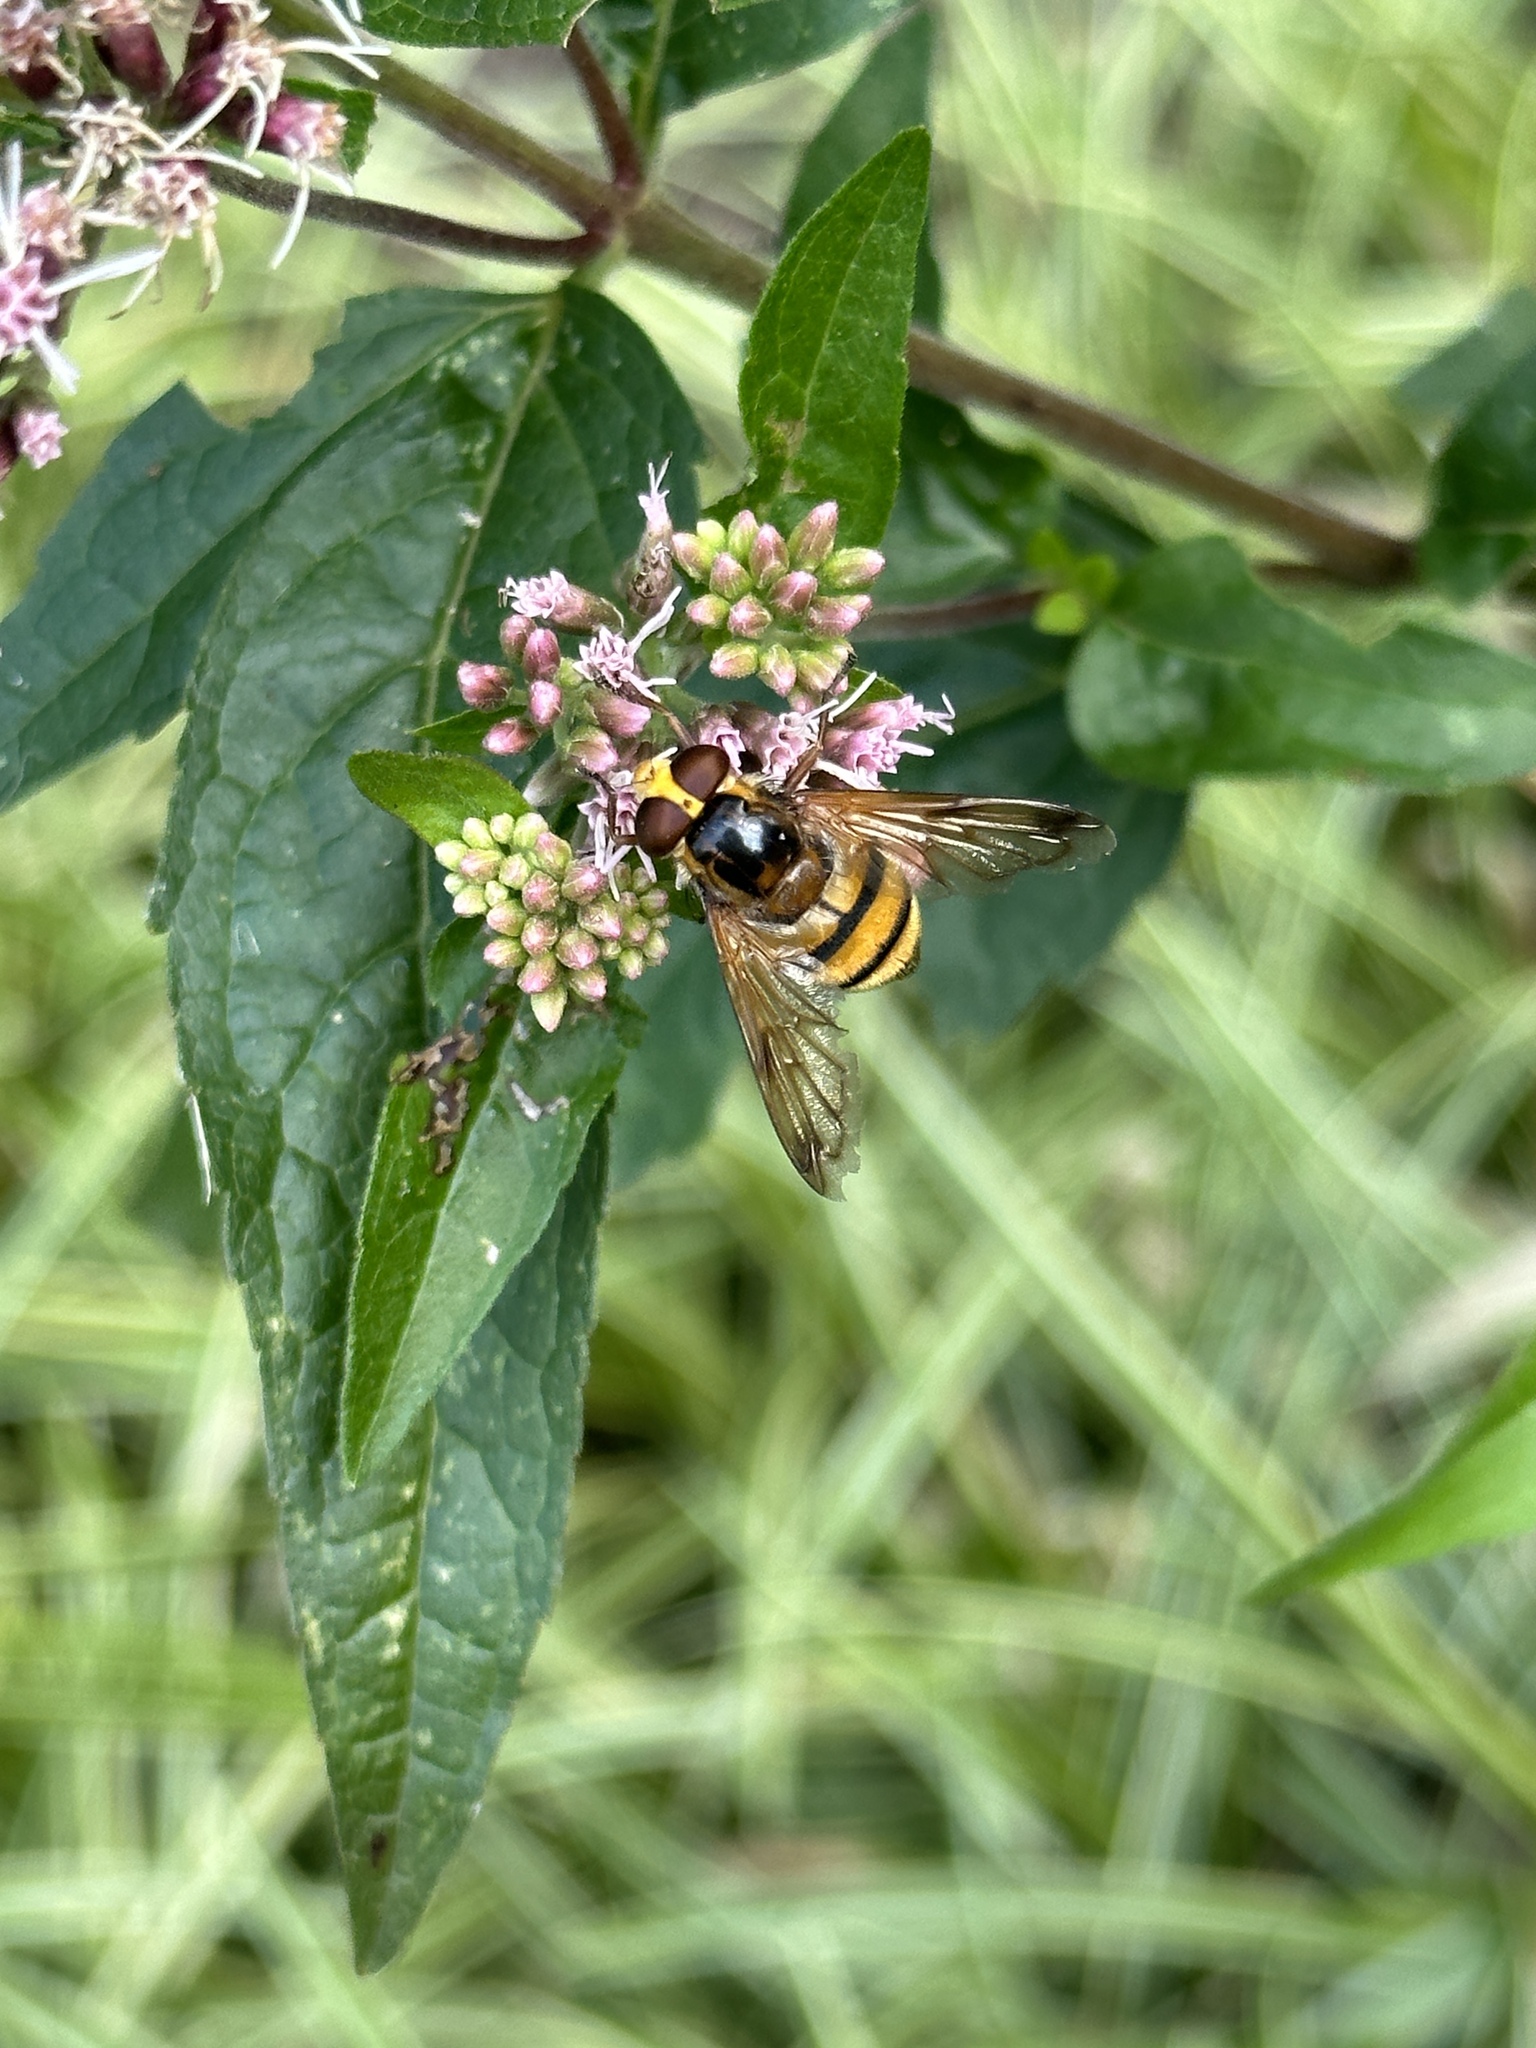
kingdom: Animalia
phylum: Arthropoda
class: Insecta
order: Diptera
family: Syrphidae
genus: Volucella
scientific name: Volucella inanis
